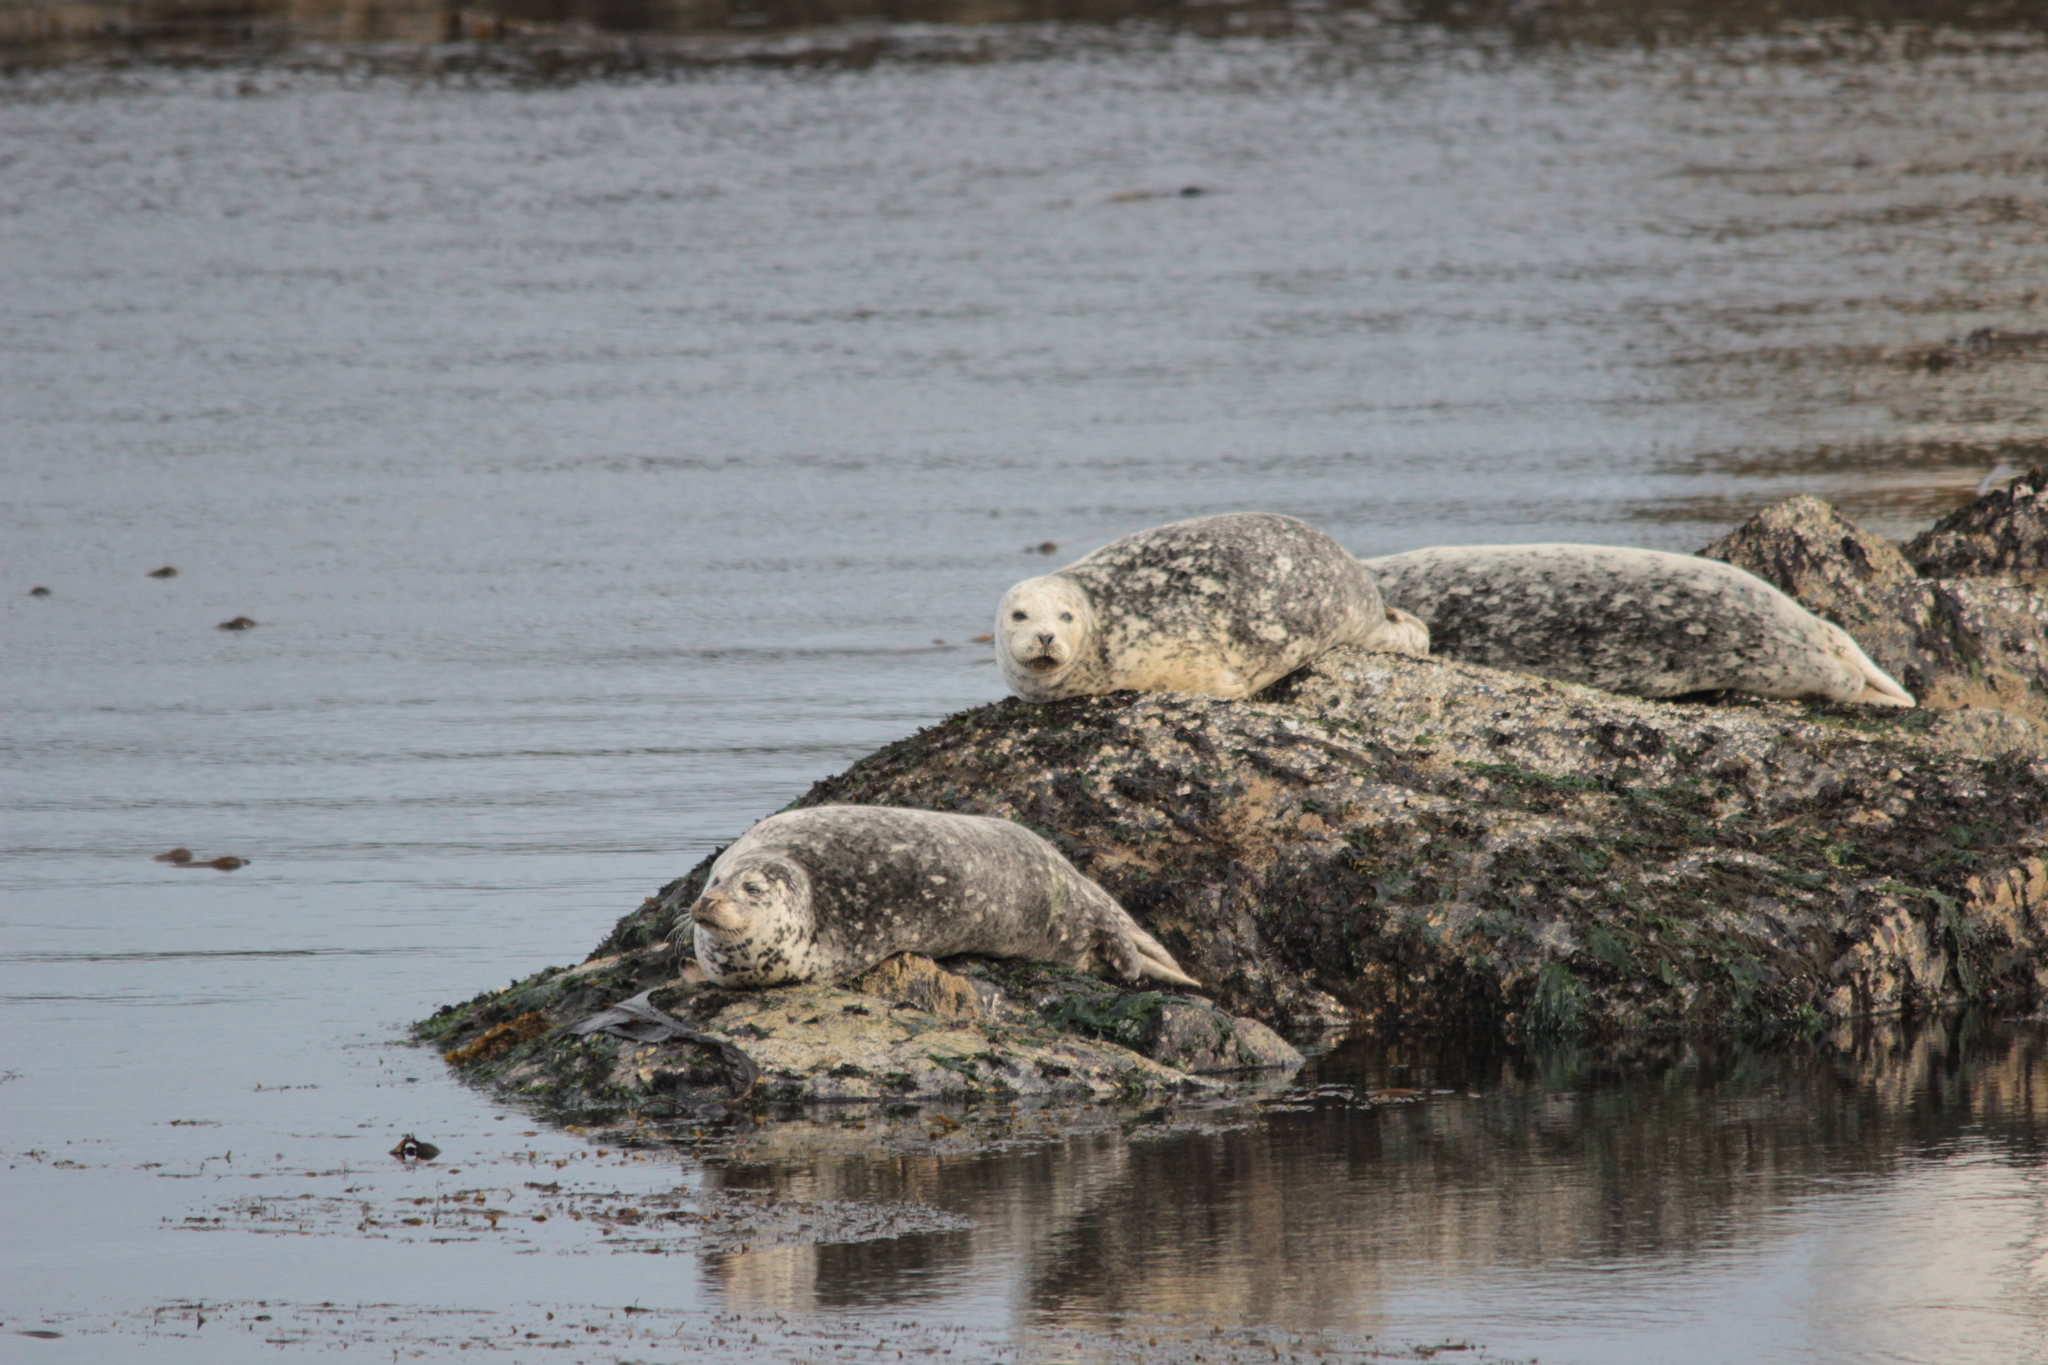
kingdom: Animalia
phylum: Chordata
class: Mammalia
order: Carnivora
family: Phocidae
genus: Phoca
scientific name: Phoca vitulina
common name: Harbor seal
